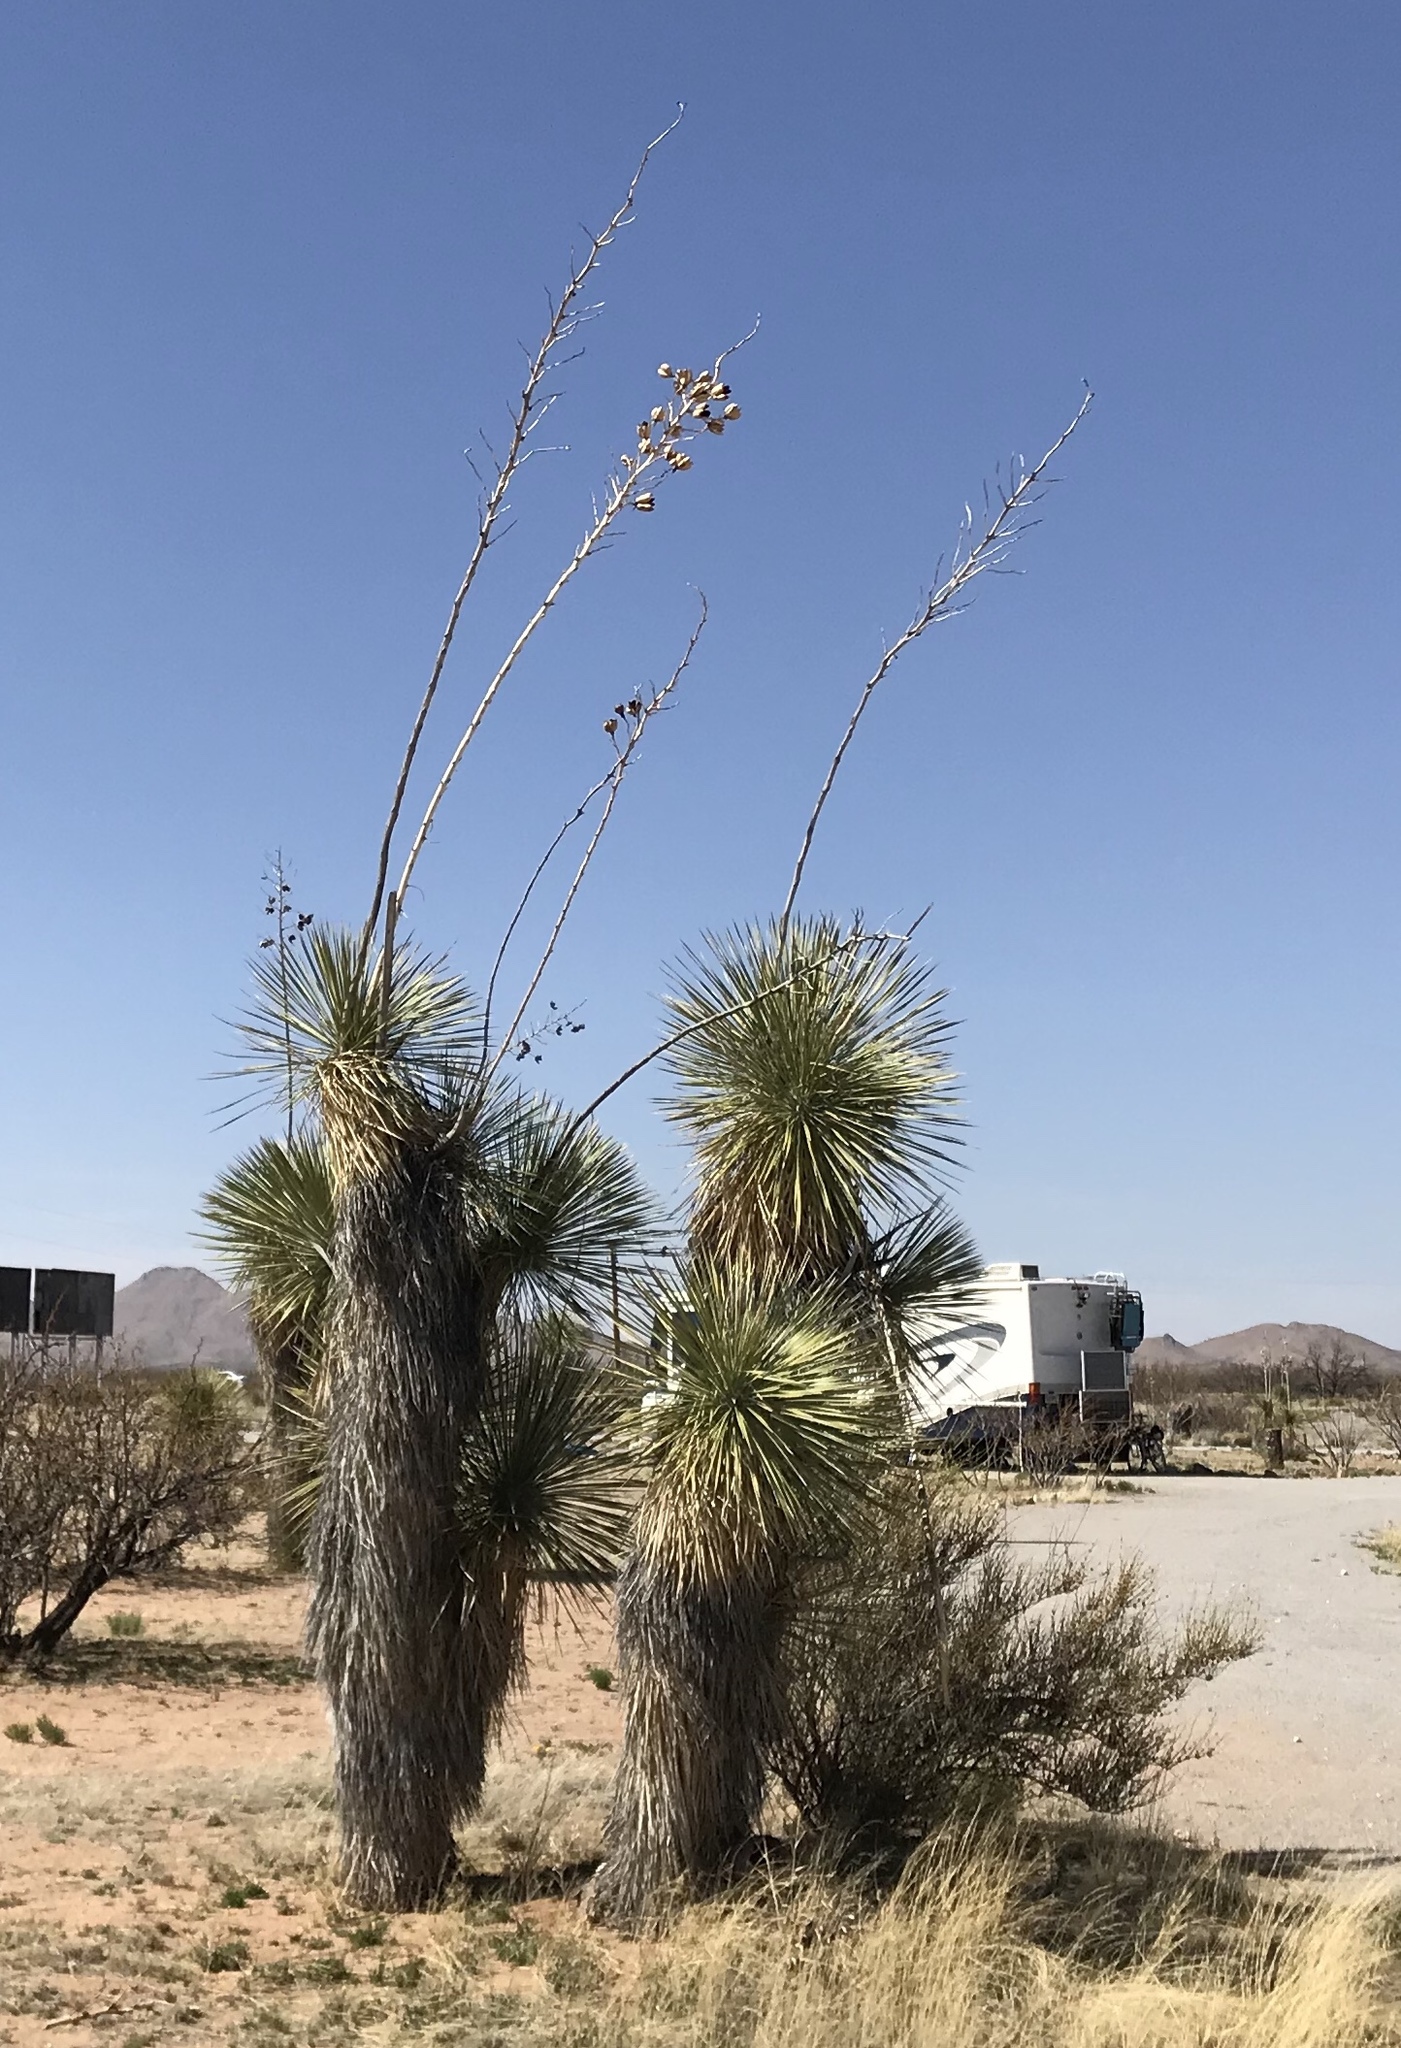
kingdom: Plantae
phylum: Tracheophyta
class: Liliopsida
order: Asparagales
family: Asparagaceae
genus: Yucca
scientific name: Yucca elata
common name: Palmella
